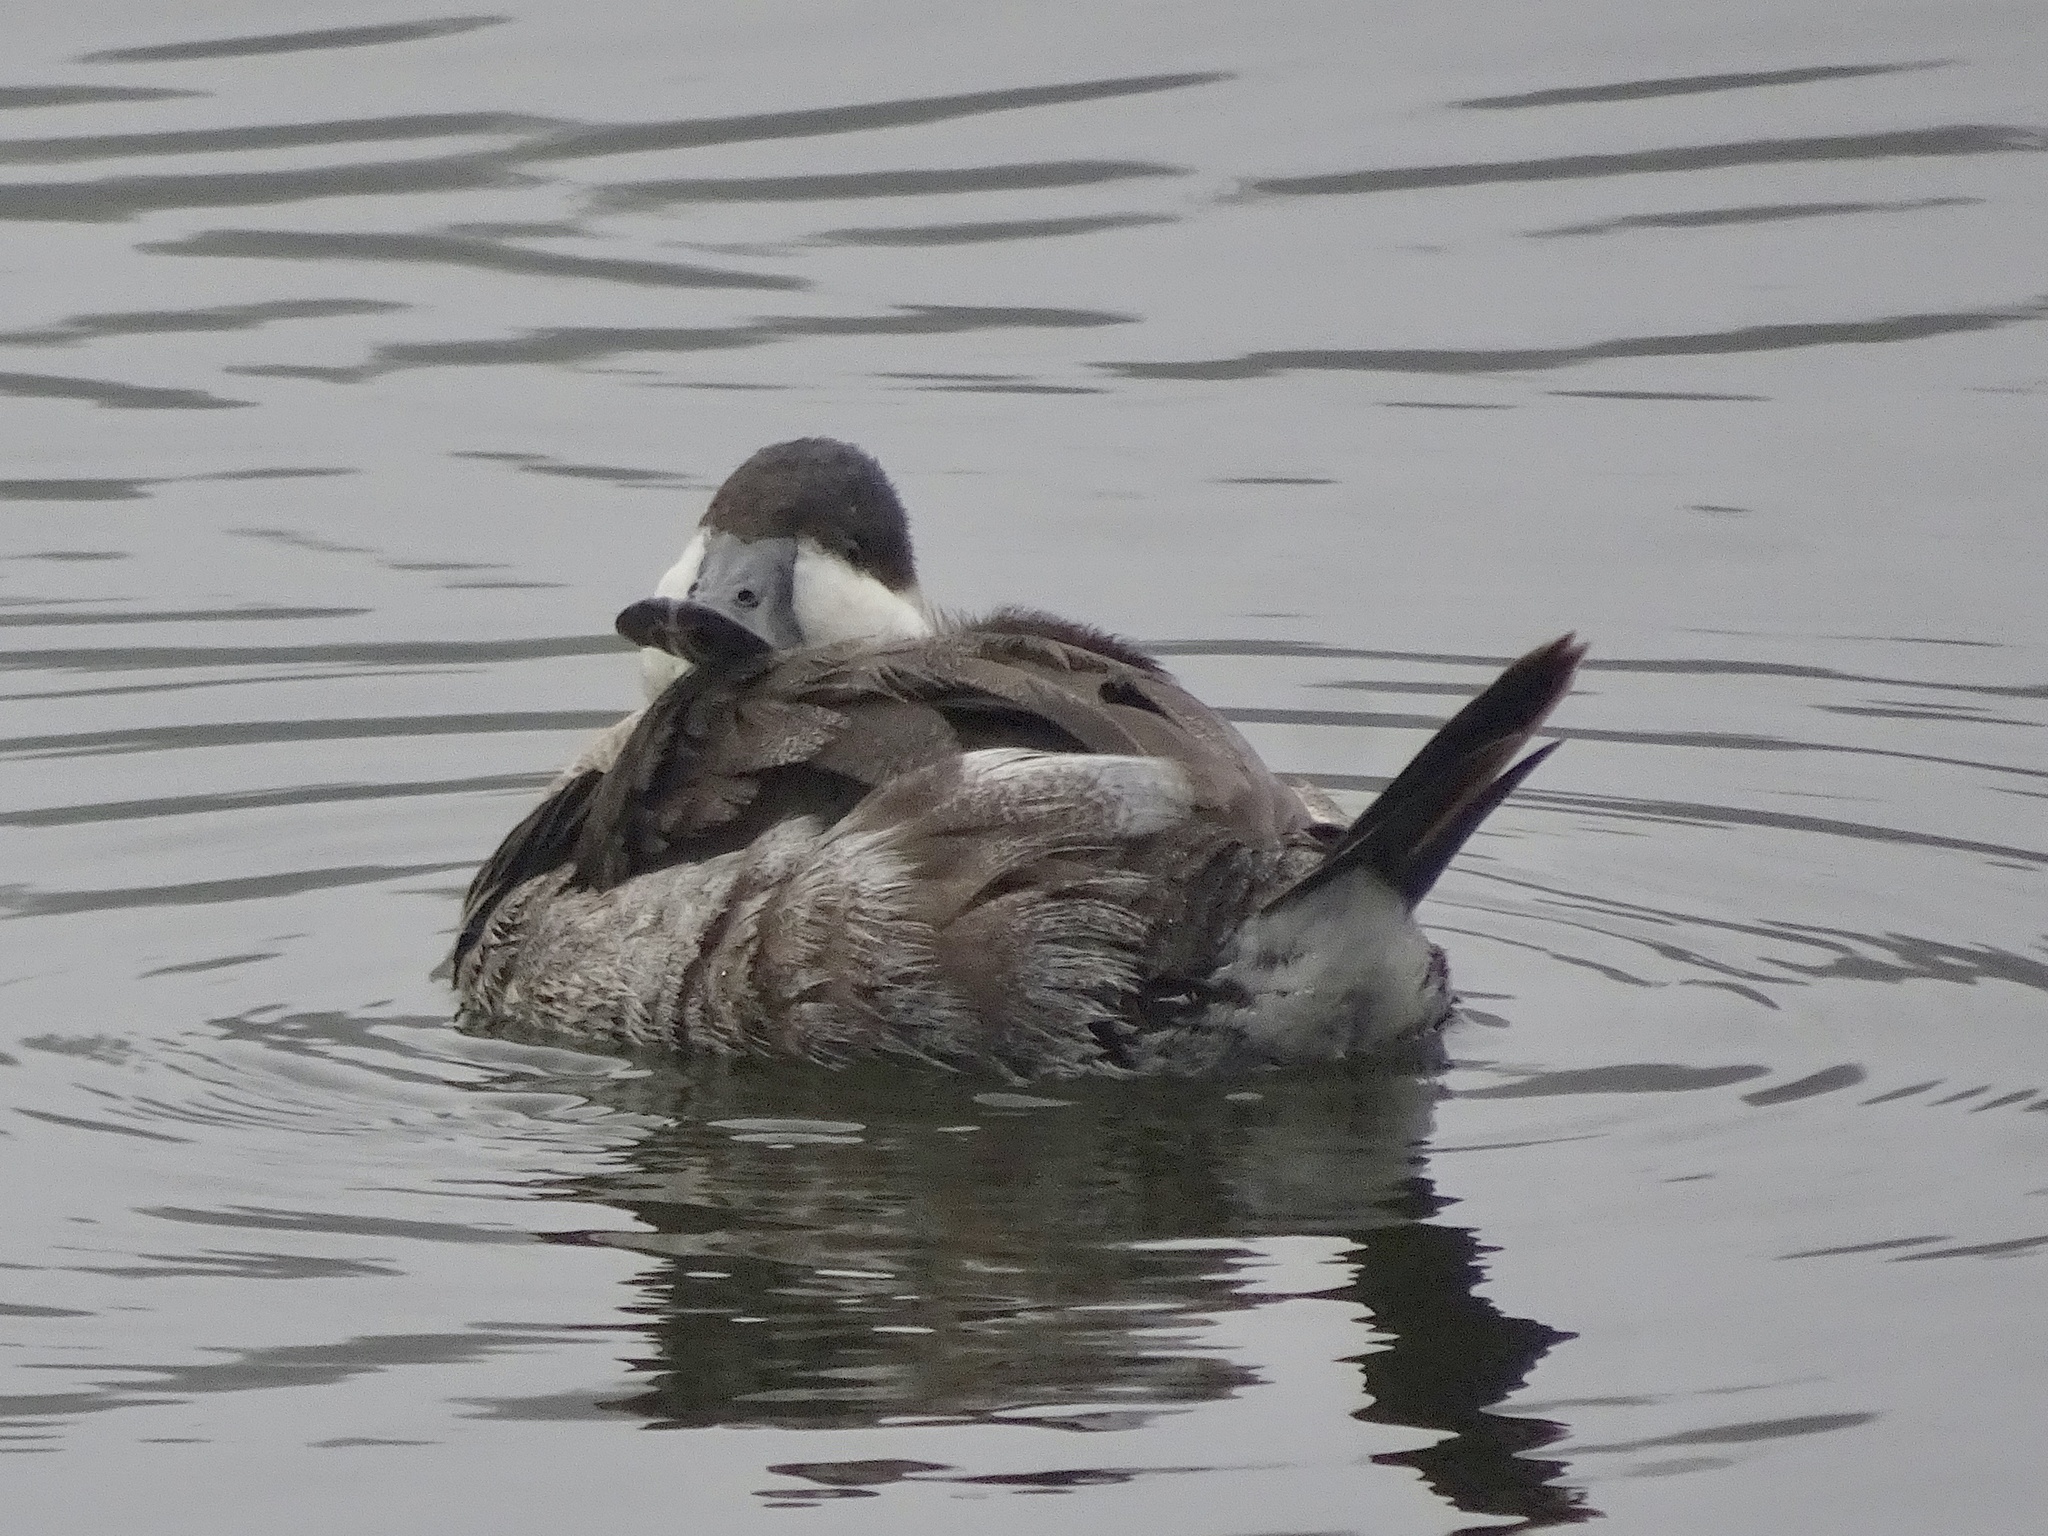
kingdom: Animalia
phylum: Chordata
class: Aves
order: Anseriformes
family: Anatidae
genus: Oxyura
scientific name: Oxyura jamaicensis
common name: Ruddy duck
